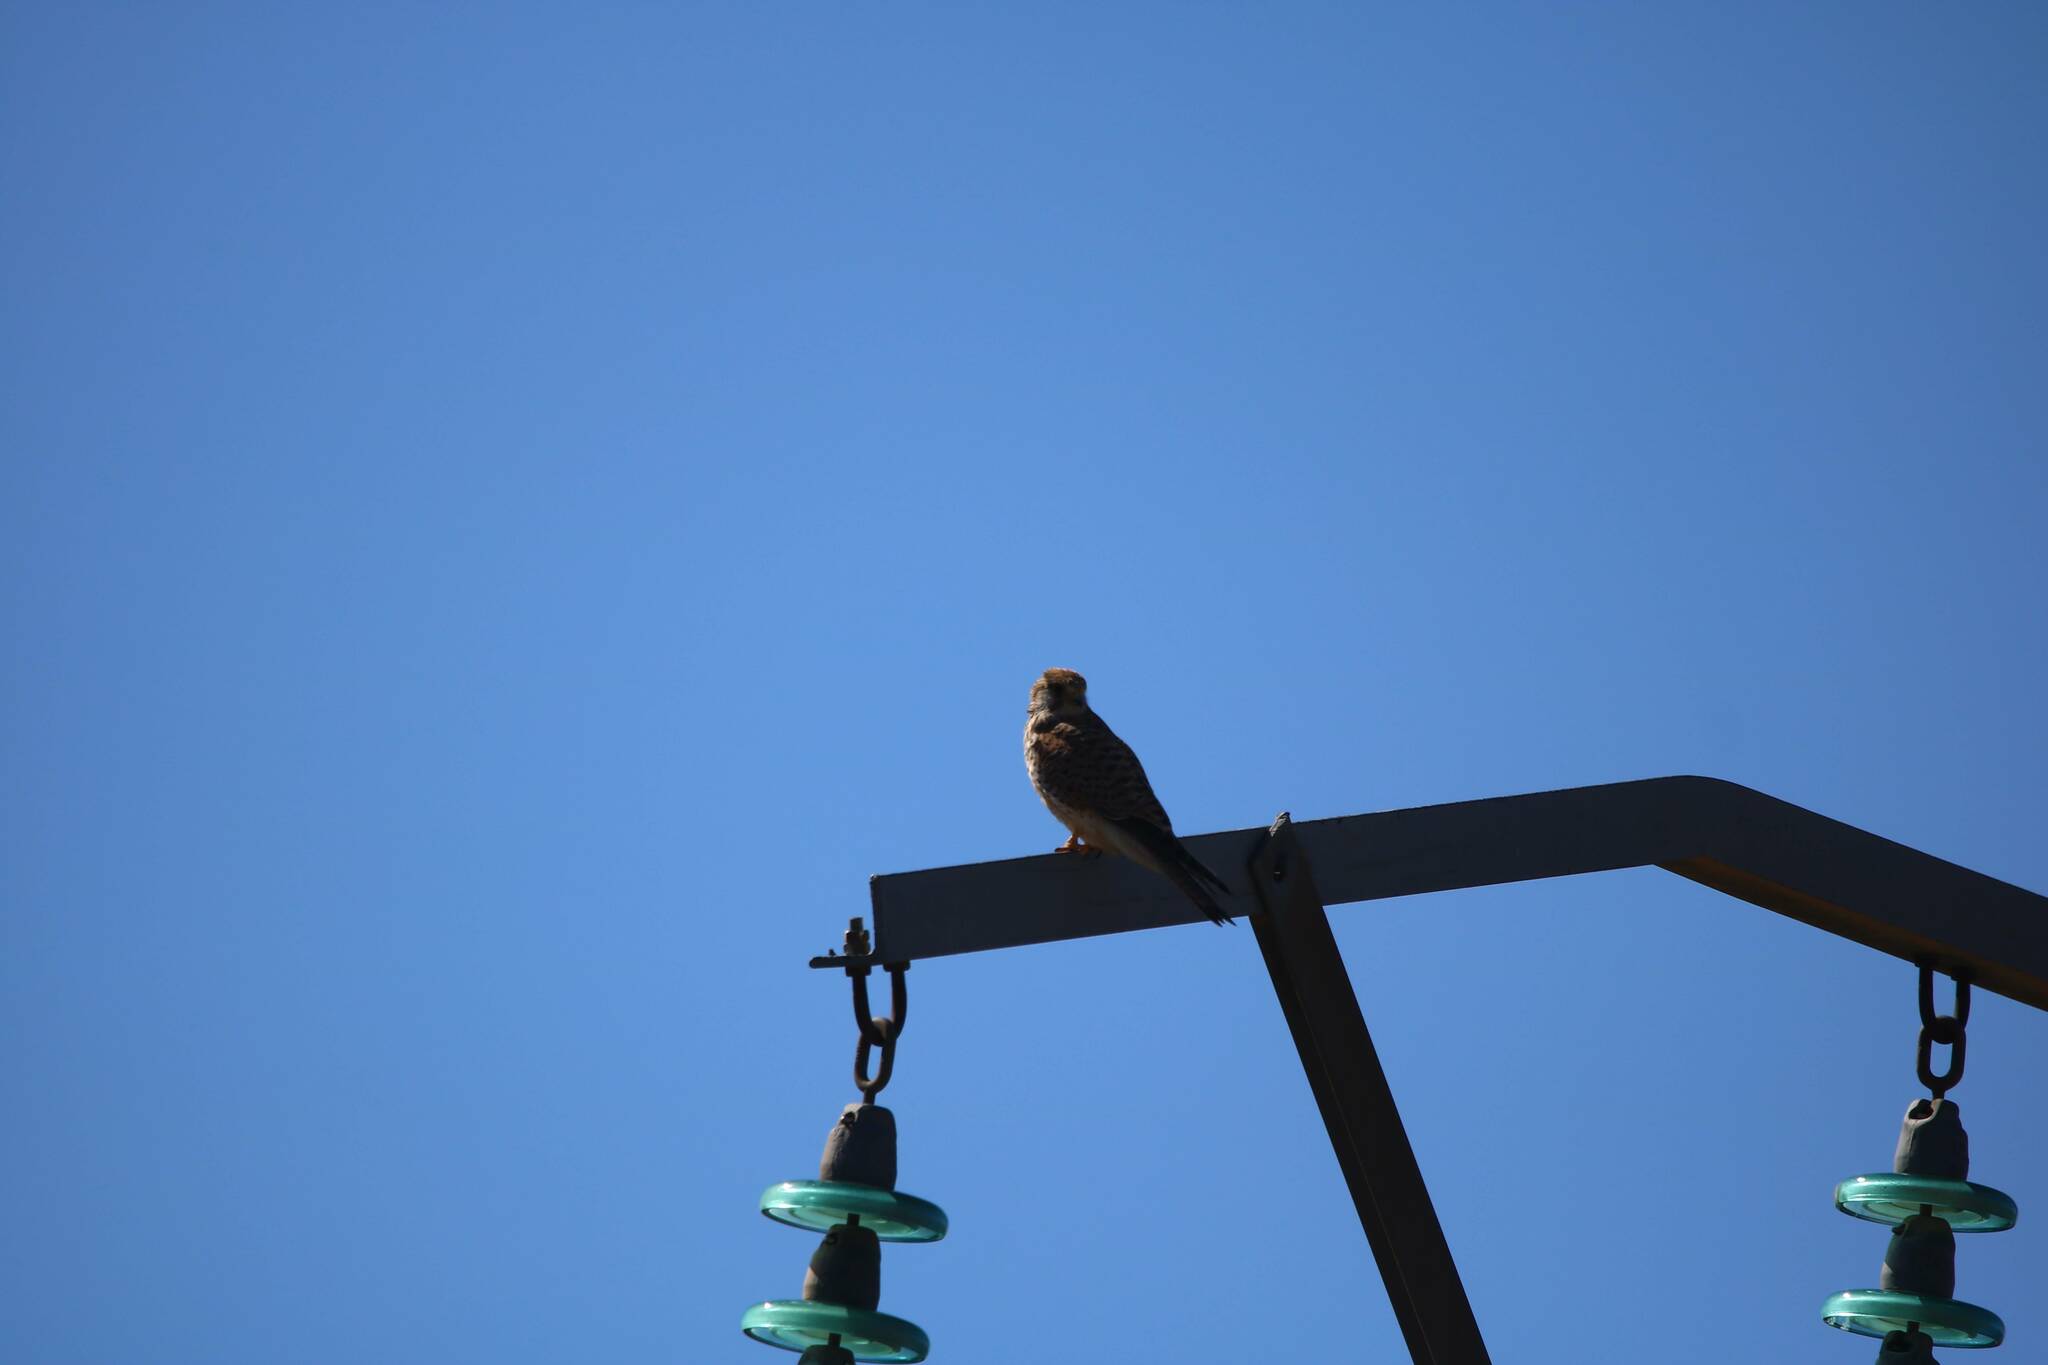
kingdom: Animalia
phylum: Chordata
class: Aves
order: Falconiformes
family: Falconidae
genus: Falco
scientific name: Falco tinnunculus
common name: Common kestrel
